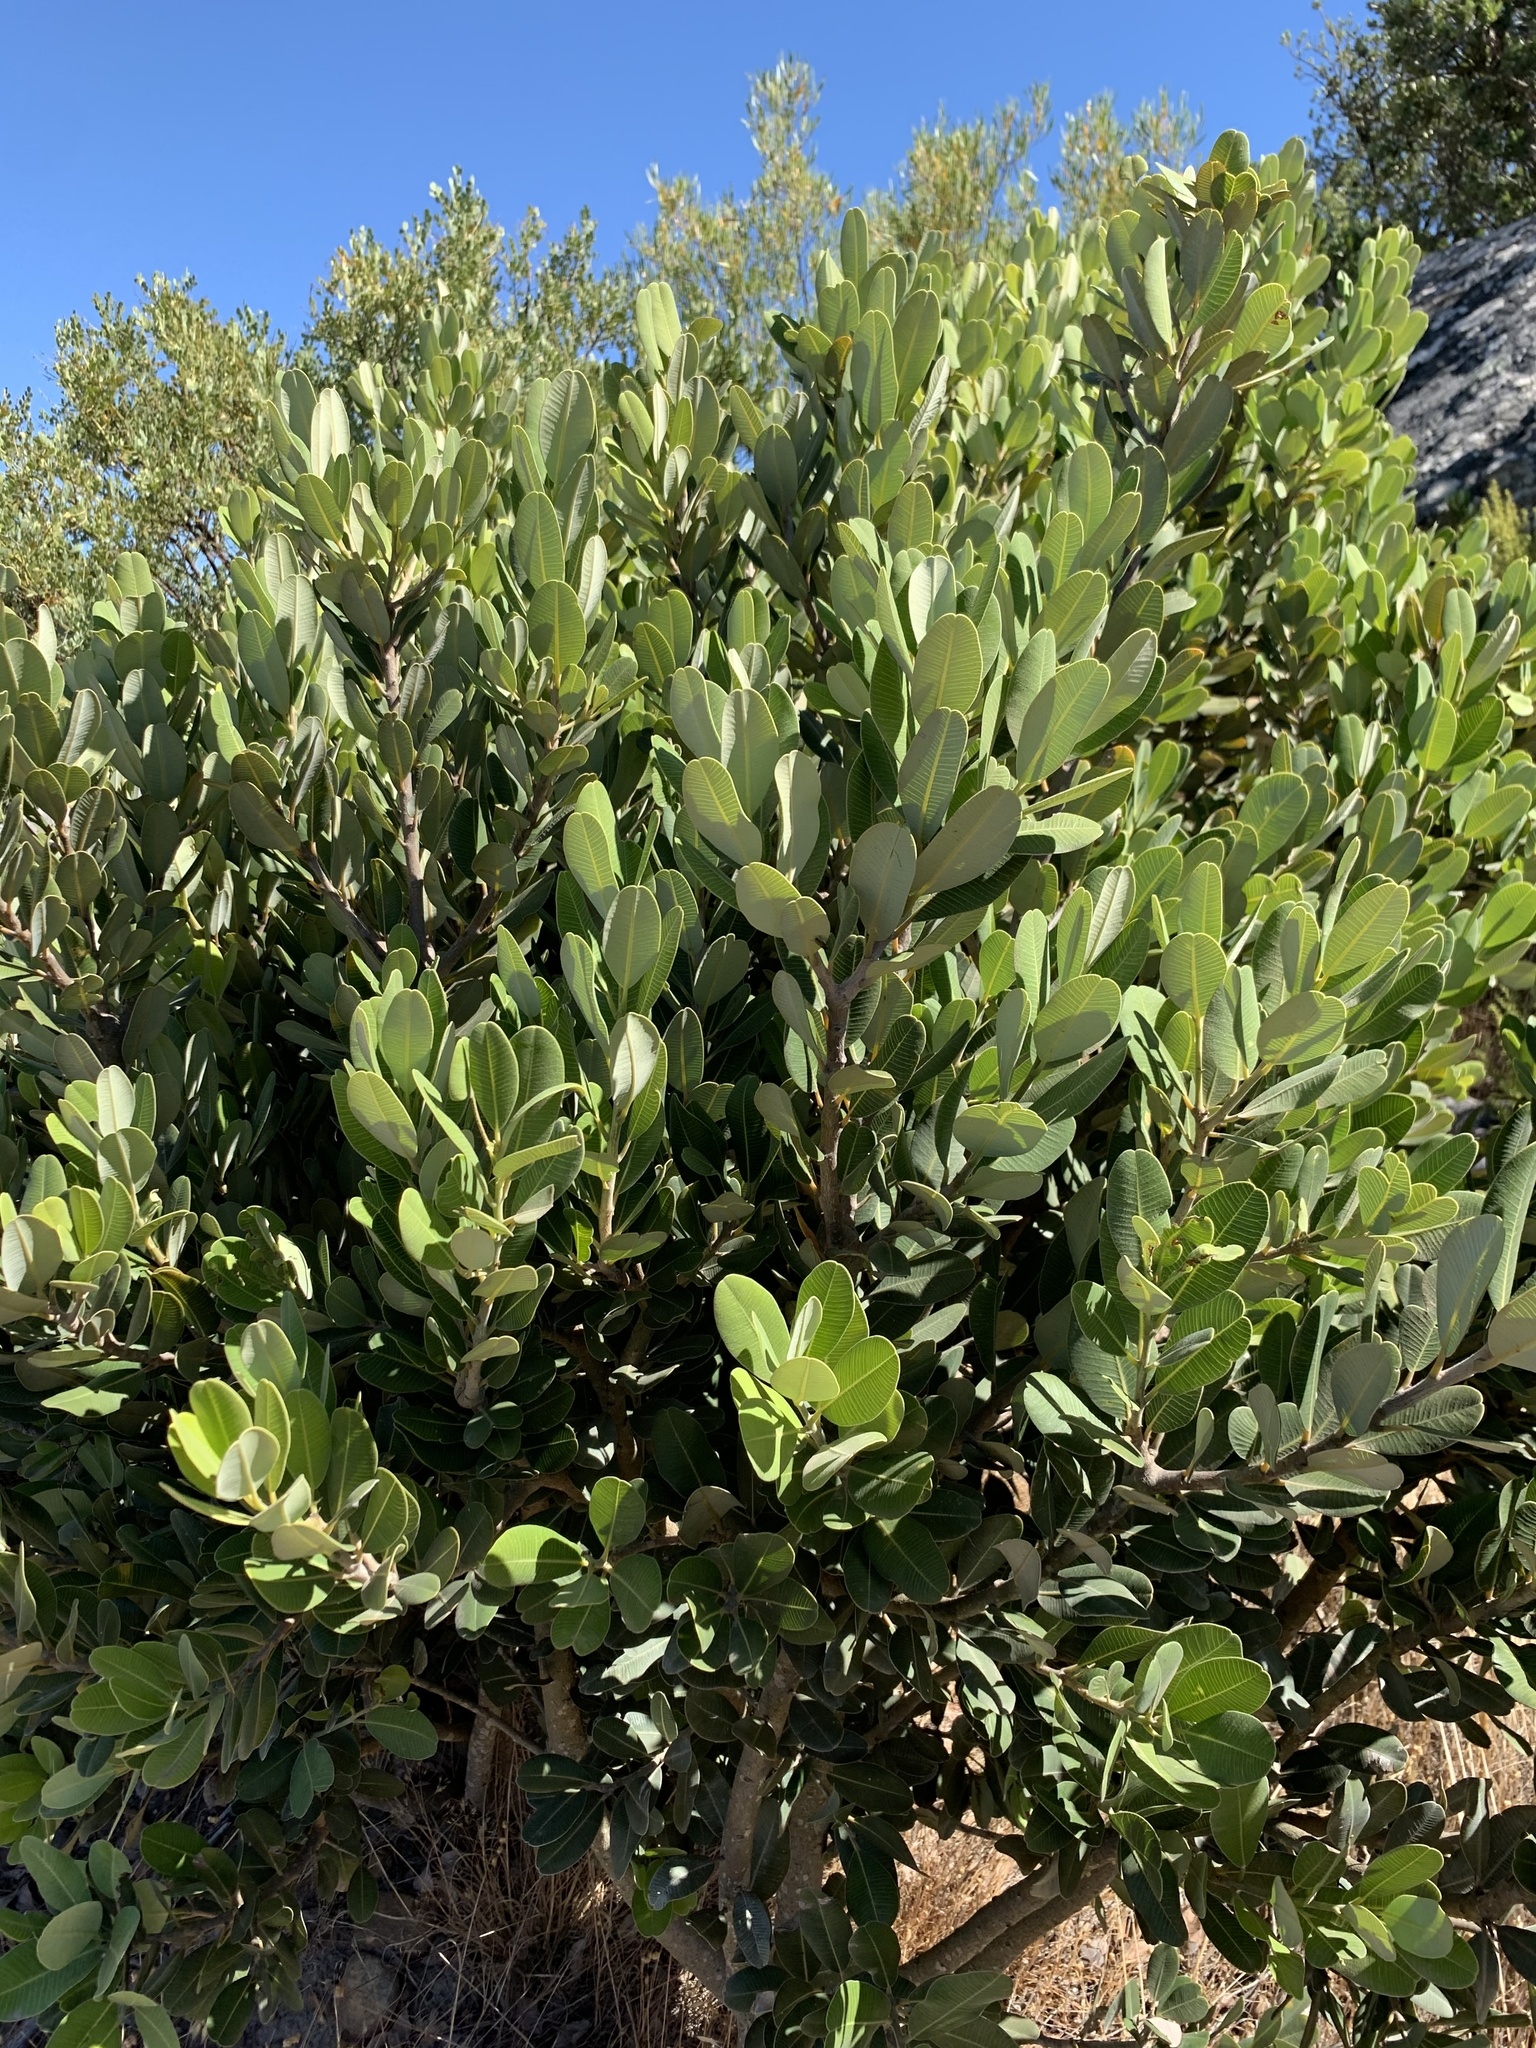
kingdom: Plantae
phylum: Tracheophyta
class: Magnoliopsida
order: Sapindales
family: Anacardiaceae
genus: Heeria
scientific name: Heeria argentea
